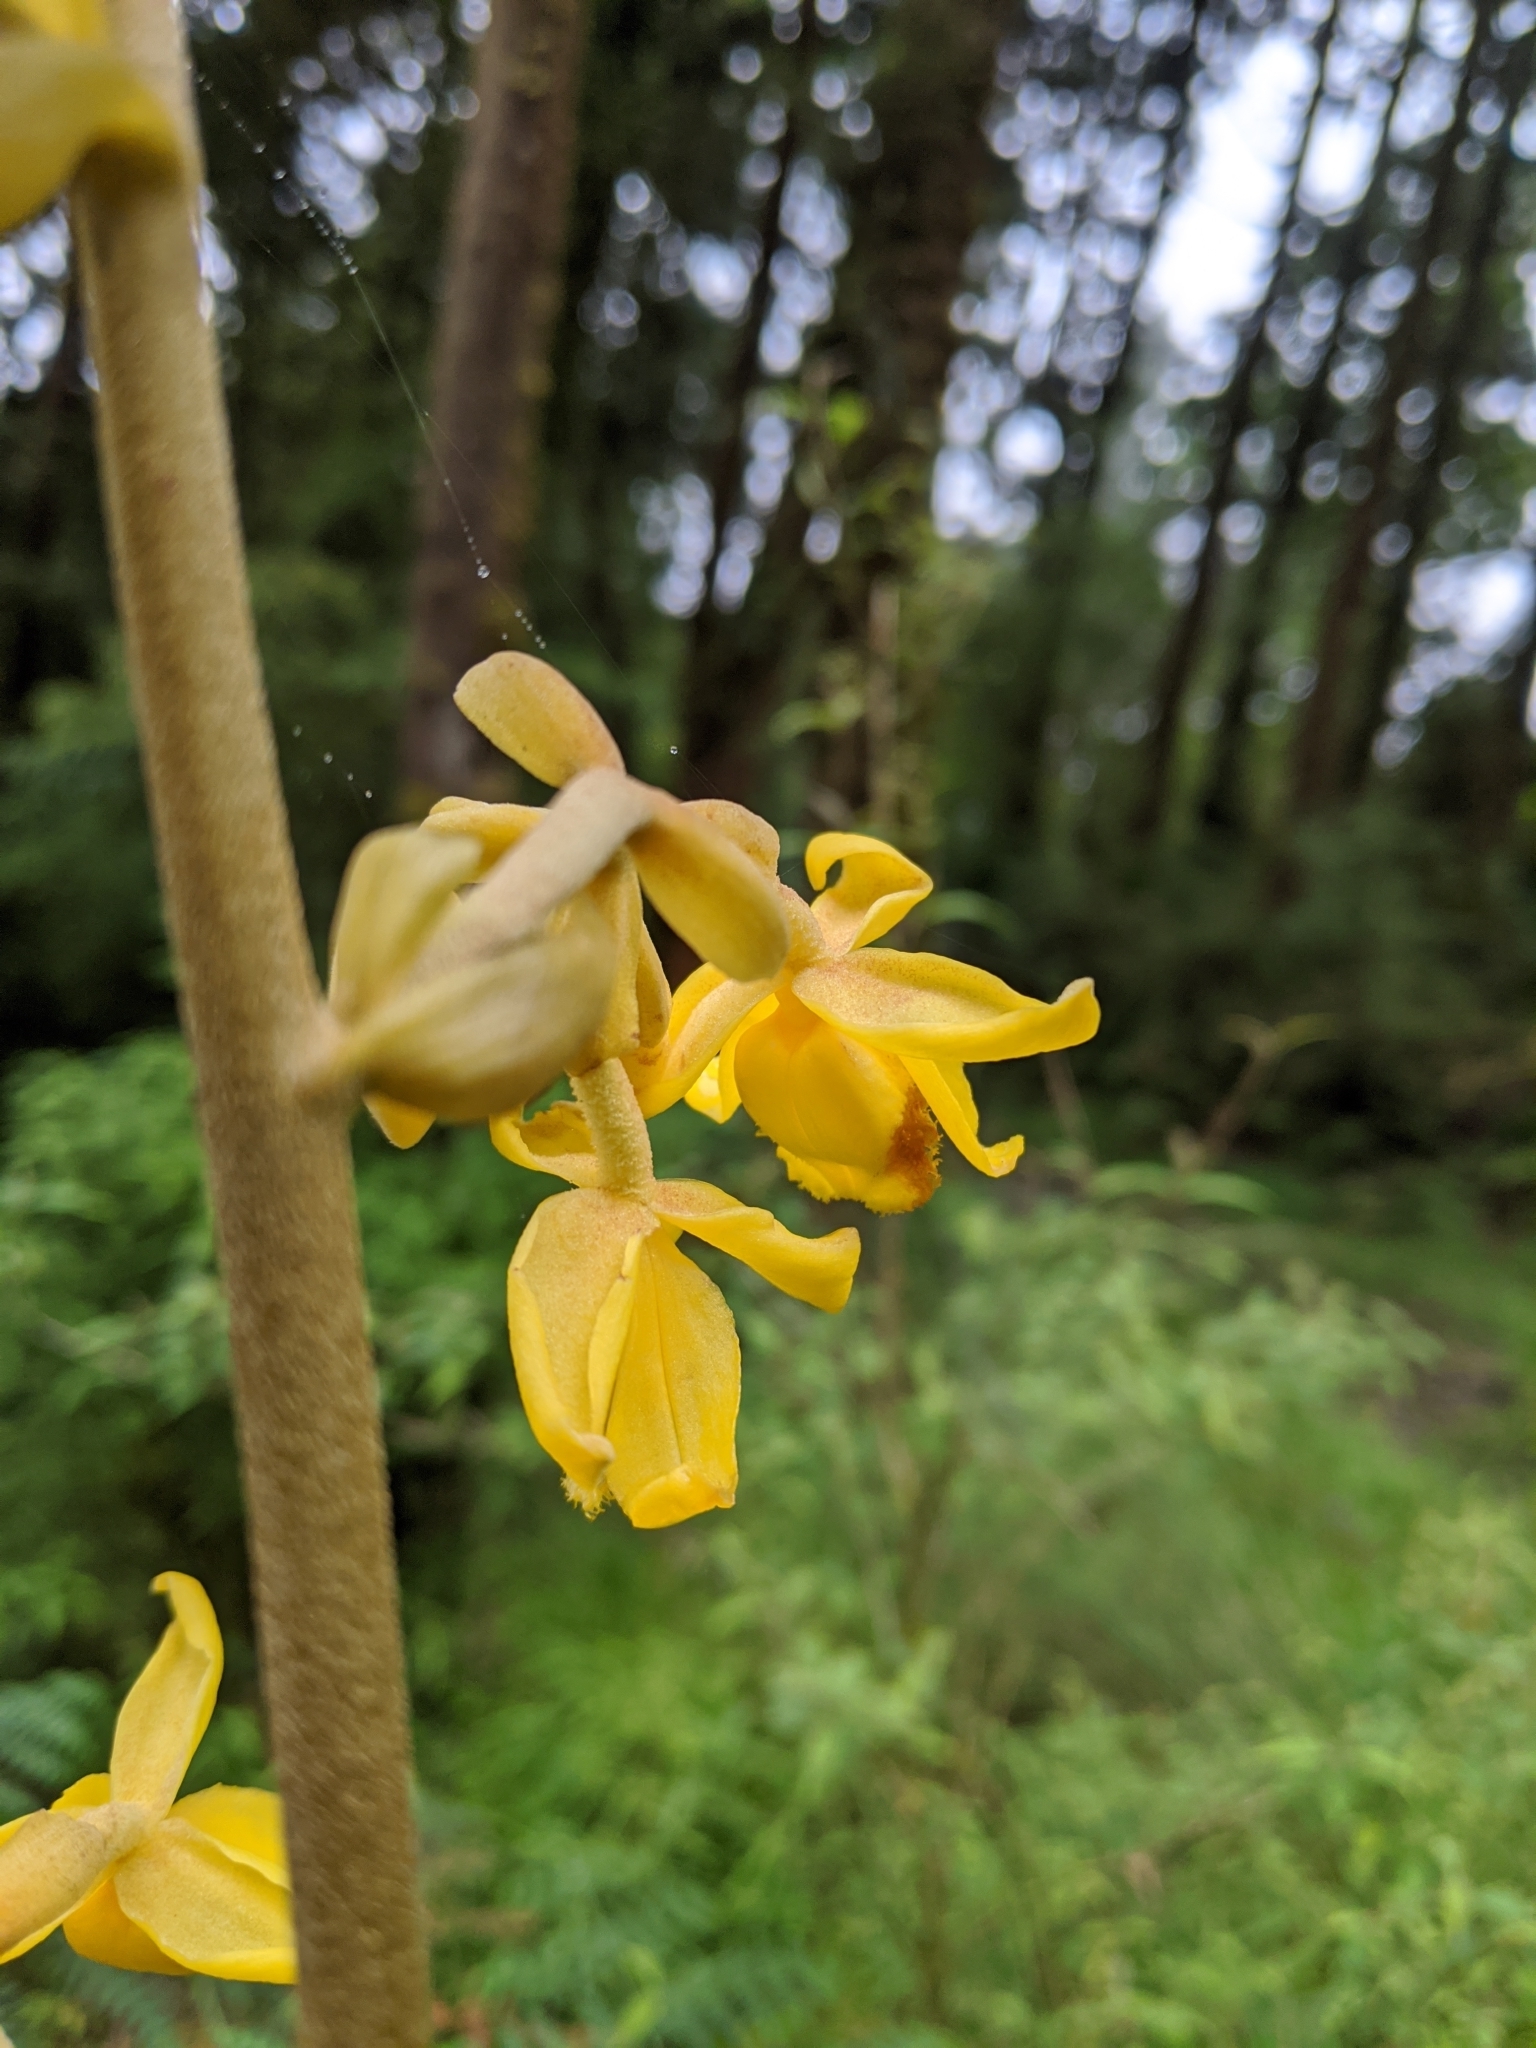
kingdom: Plantae
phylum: Tracheophyta
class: Liliopsida
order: Asparagales
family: Orchidaceae
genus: Cyrtosia
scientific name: Cyrtosia falconeri
